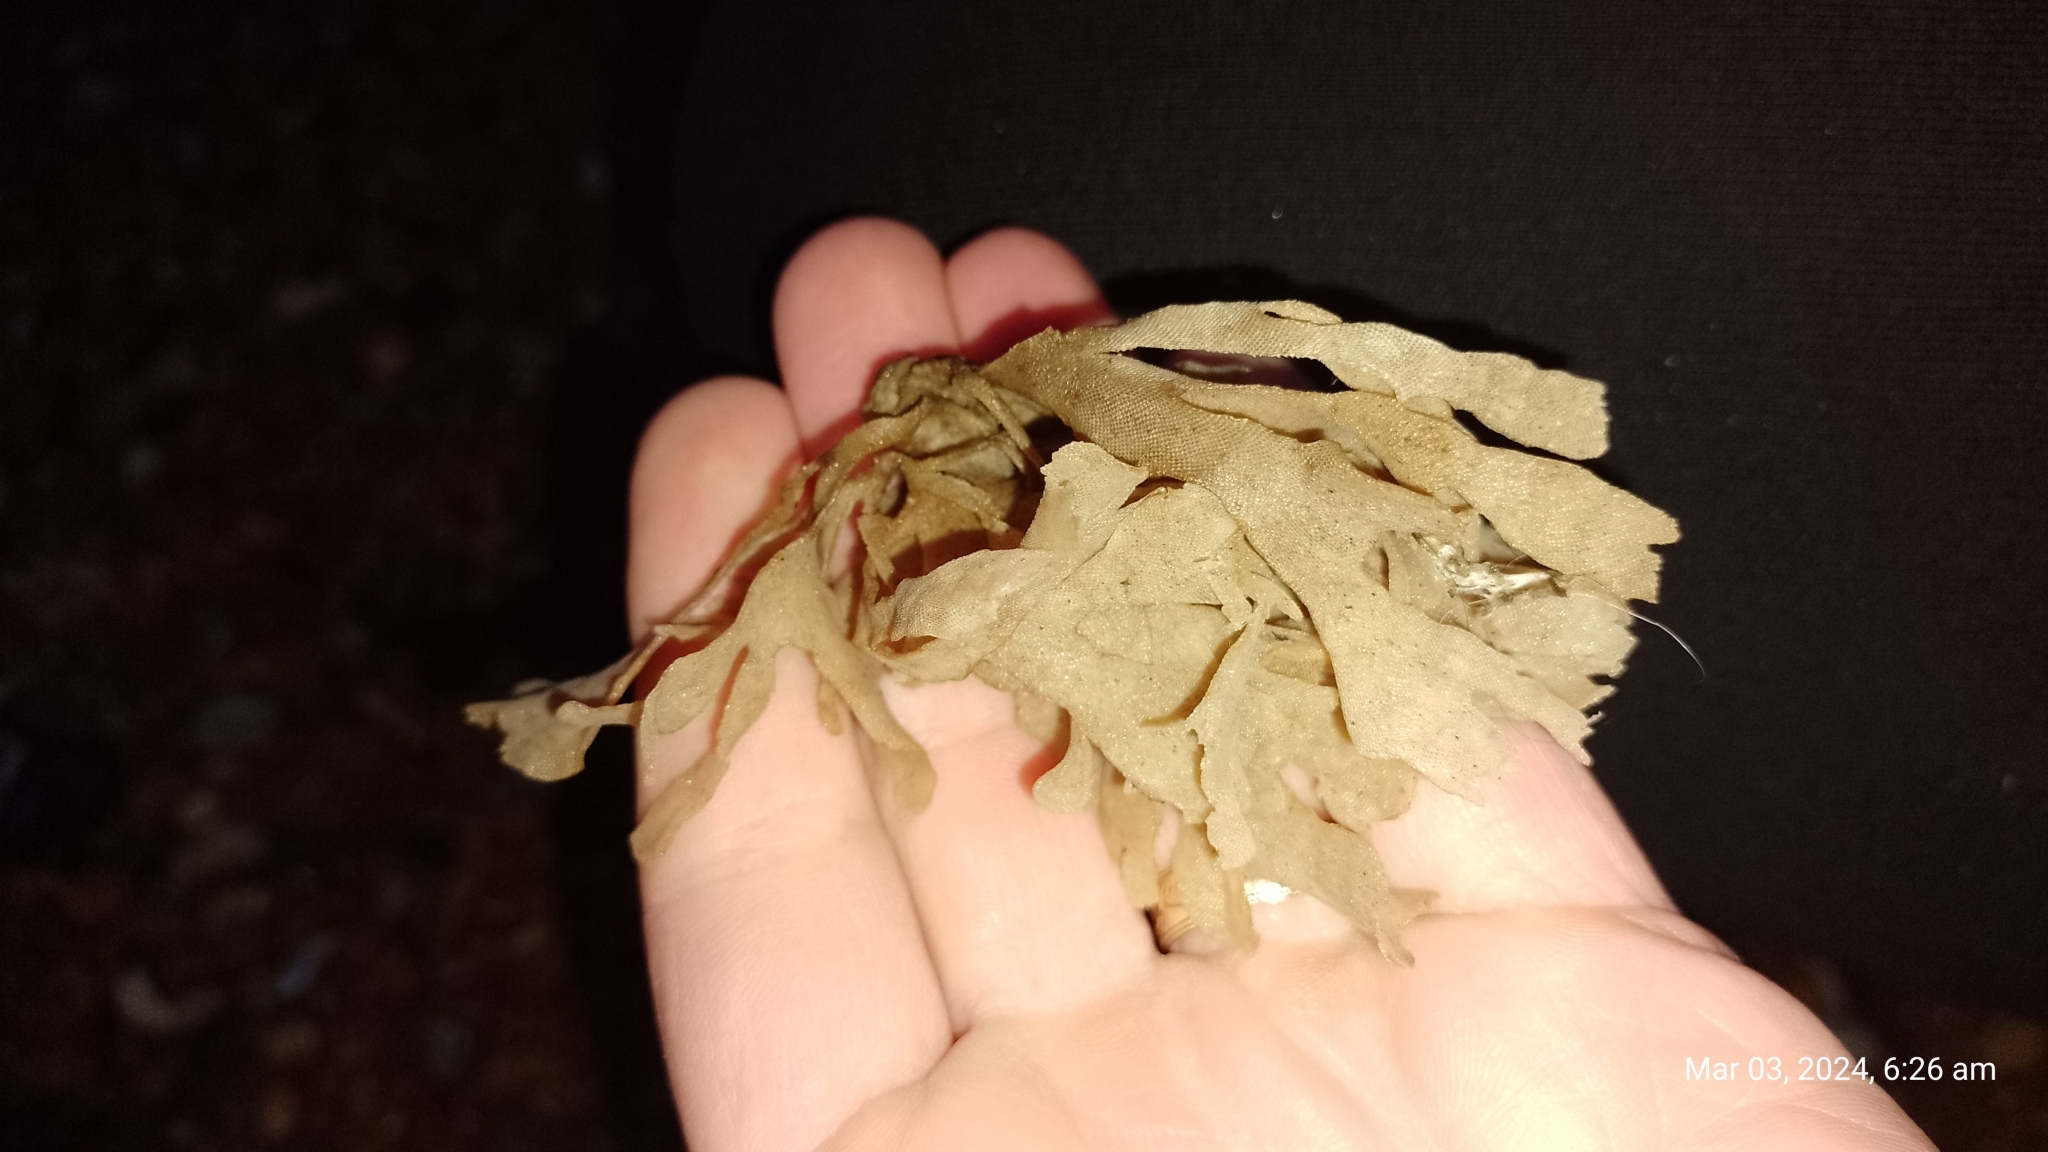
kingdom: Animalia
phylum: Bryozoa
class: Gymnolaemata
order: Cheilostomatida
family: Flustridae
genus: Flustra
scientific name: Flustra foliacea
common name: Hornwrack
